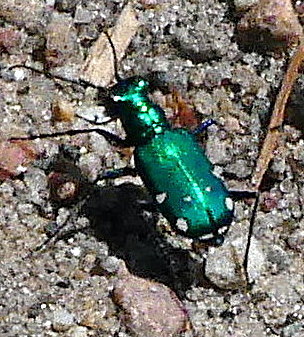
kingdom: Animalia
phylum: Arthropoda
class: Insecta
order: Coleoptera
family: Carabidae
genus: Cicindela
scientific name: Cicindela sexguttata
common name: Six-spotted tiger beetle
